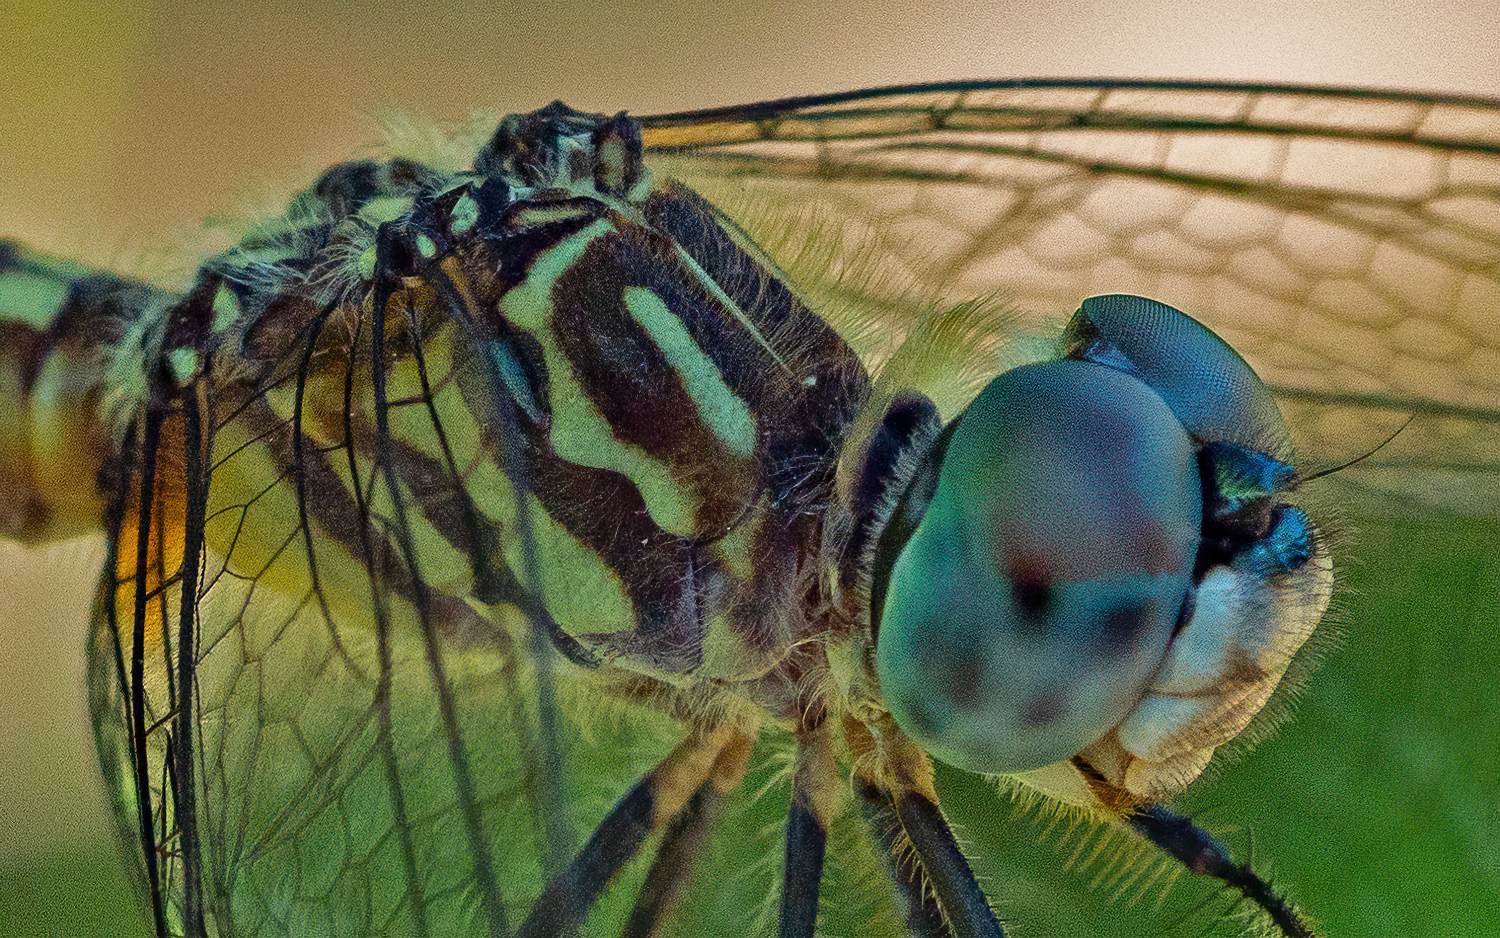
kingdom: Animalia
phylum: Arthropoda
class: Insecta
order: Odonata
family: Libellulidae
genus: Pachydiplax
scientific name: Pachydiplax longipennis
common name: Blue dasher
